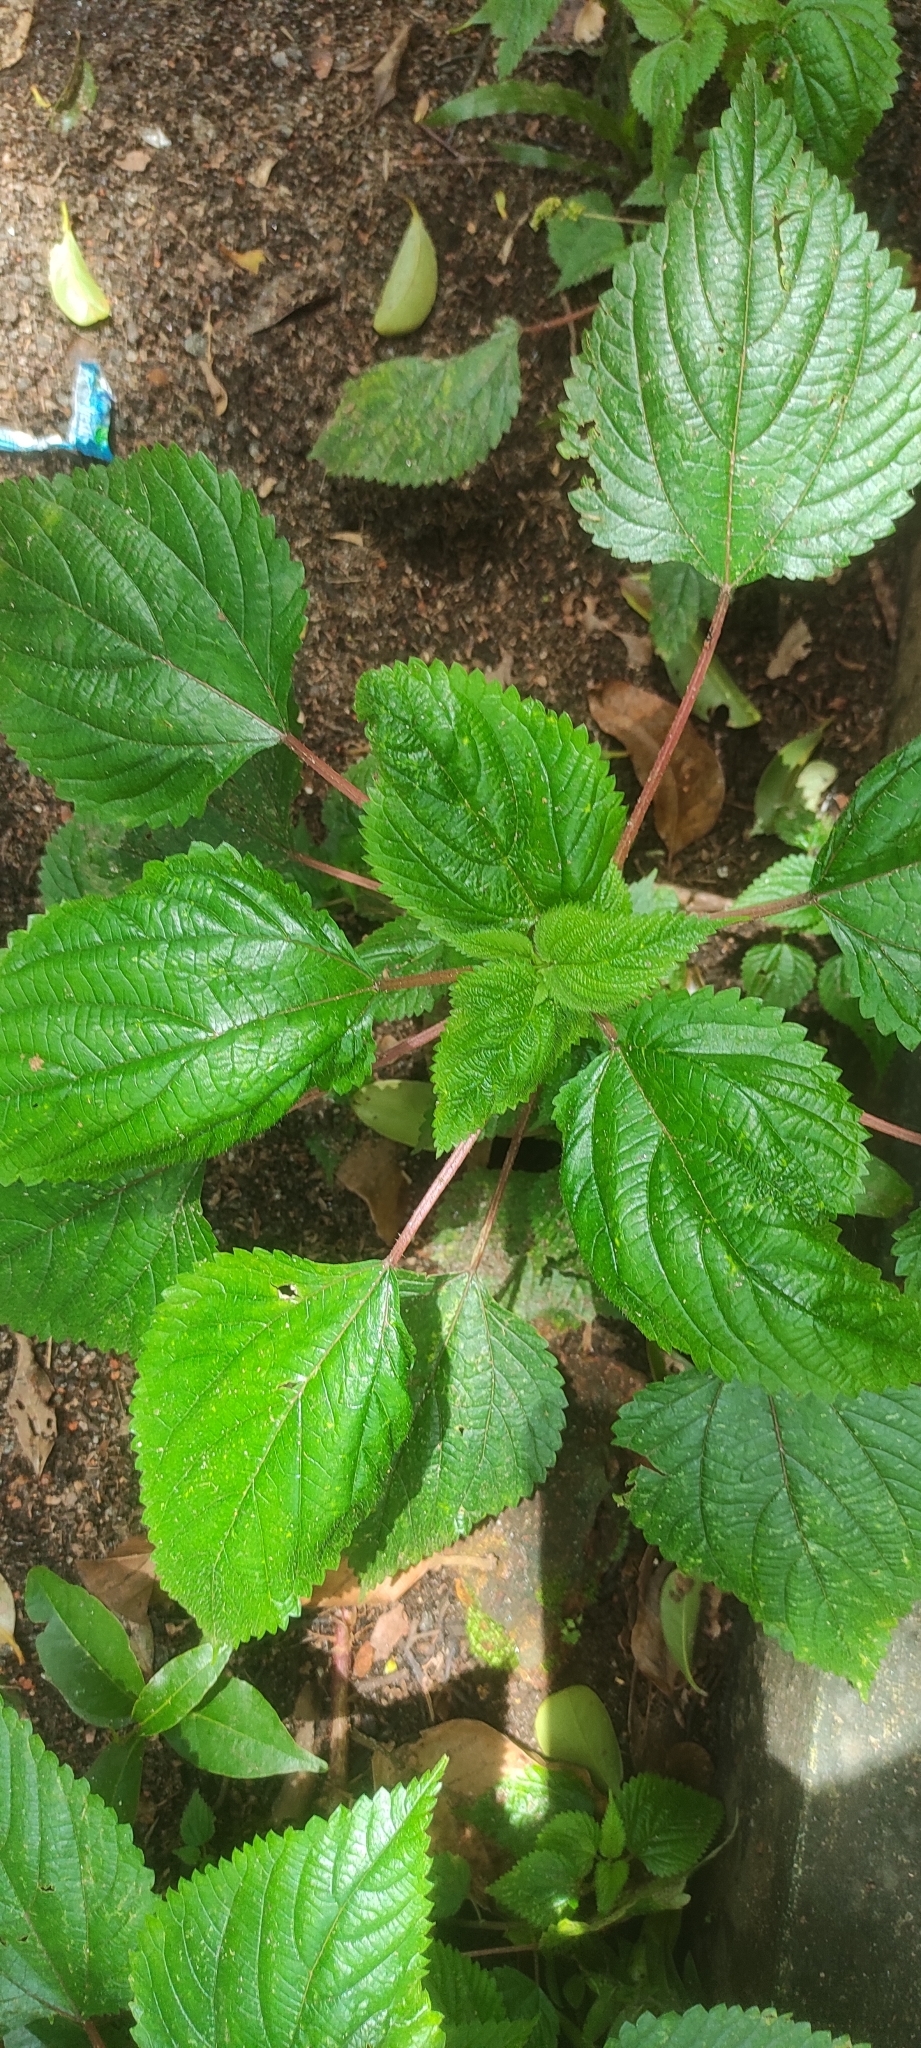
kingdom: Plantae
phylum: Tracheophyta
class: Magnoliopsida
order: Rosales
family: Urticaceae
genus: Laportea
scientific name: Laportea aestuans
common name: West indian woodnettle
